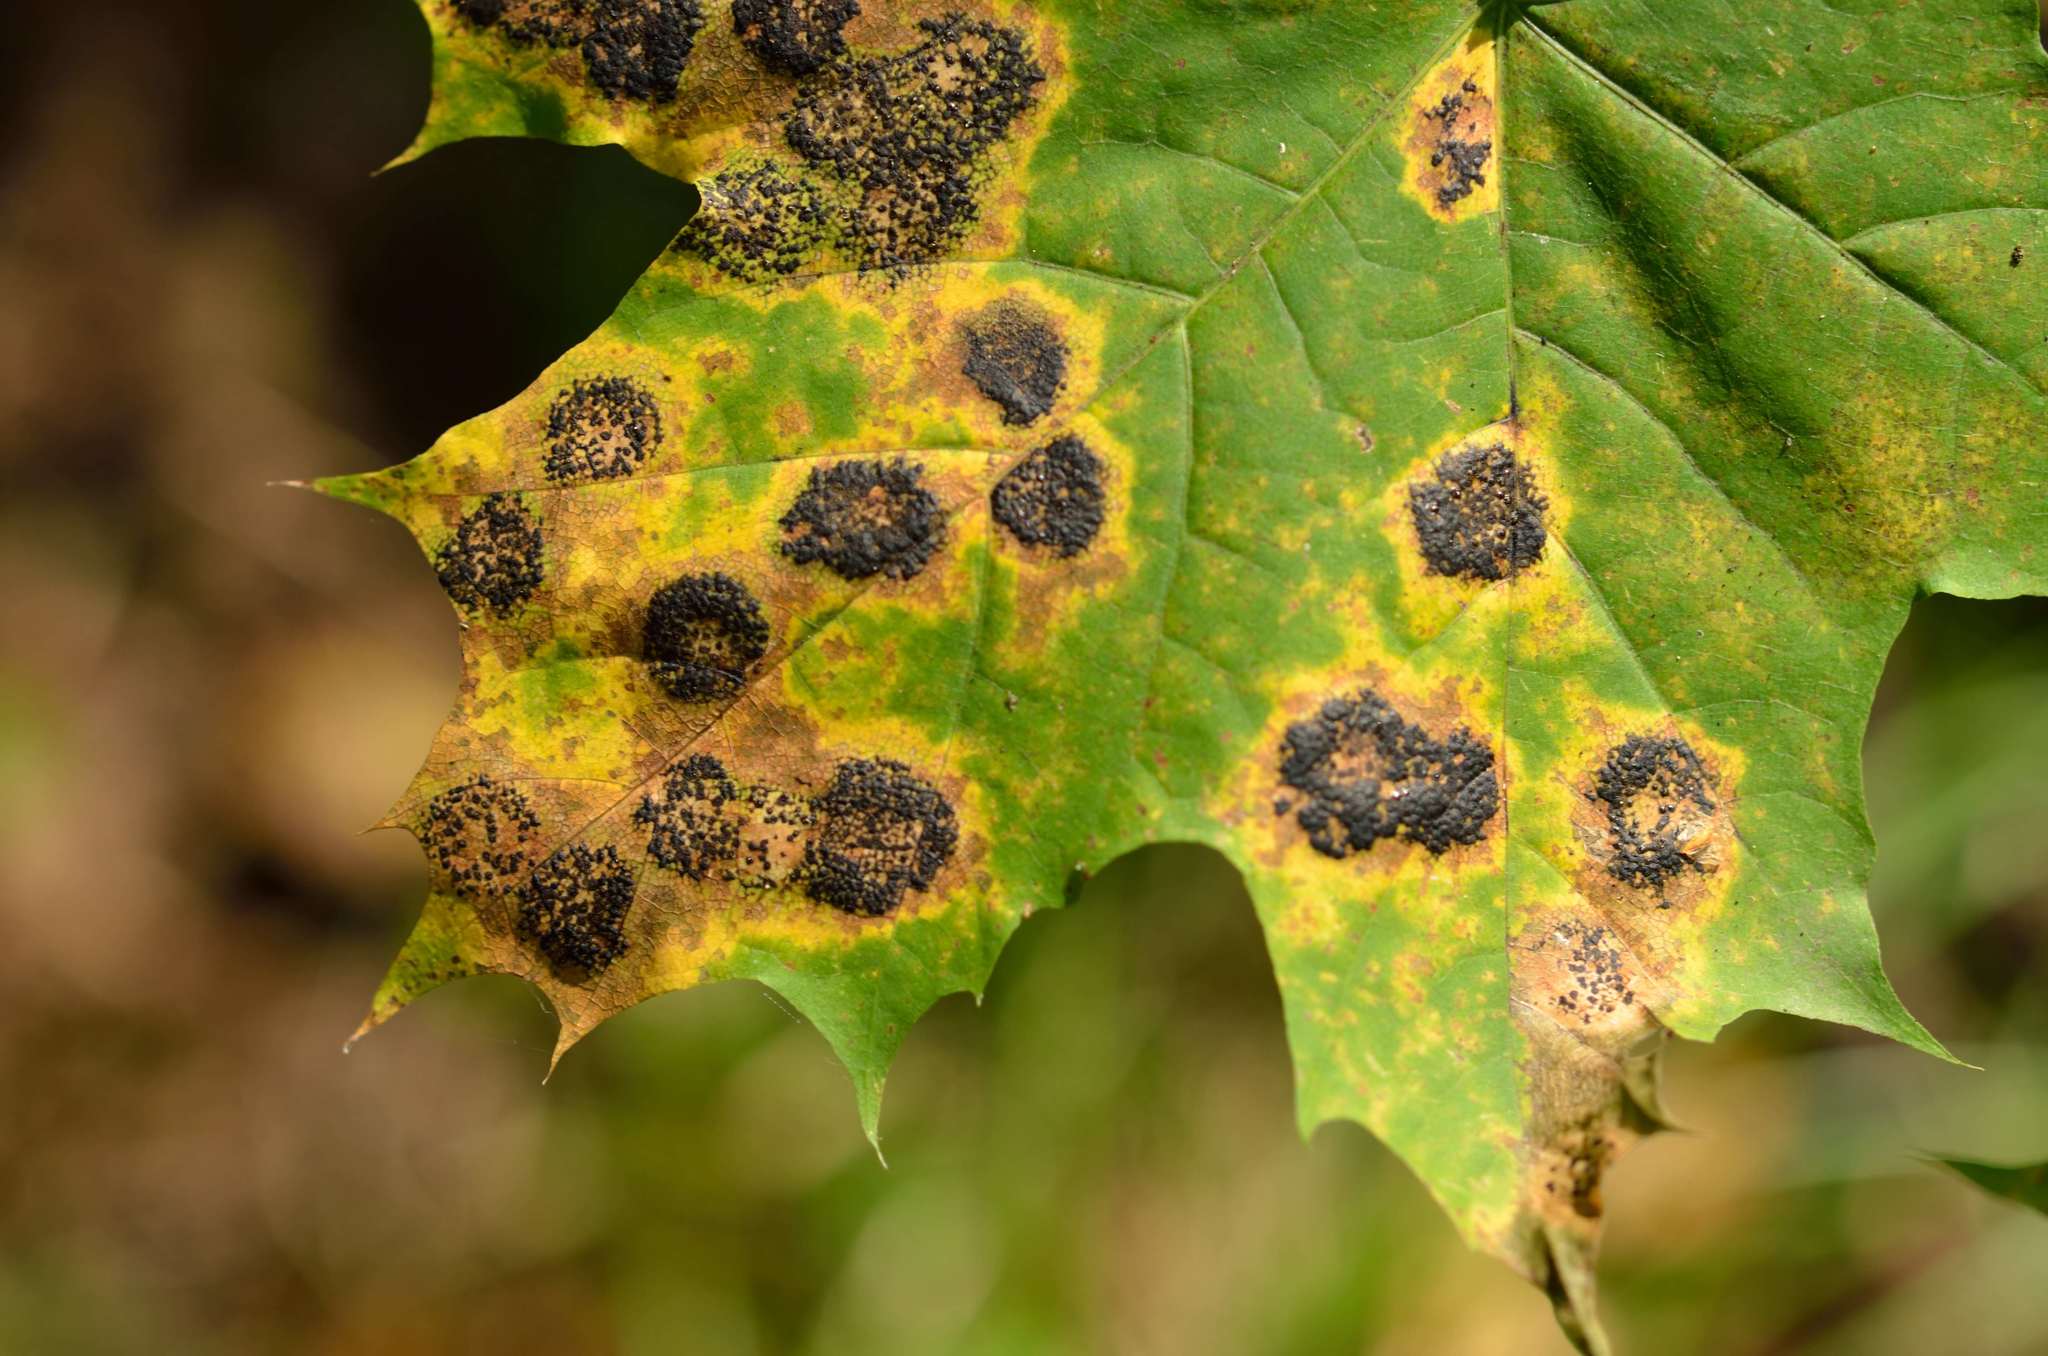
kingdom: Fungi
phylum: Ascomycota
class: Leotiomycetes
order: Rhytismatales
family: Rhytismataceae
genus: Rhytisma
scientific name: Rhytisma acerinum
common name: European tar spot
